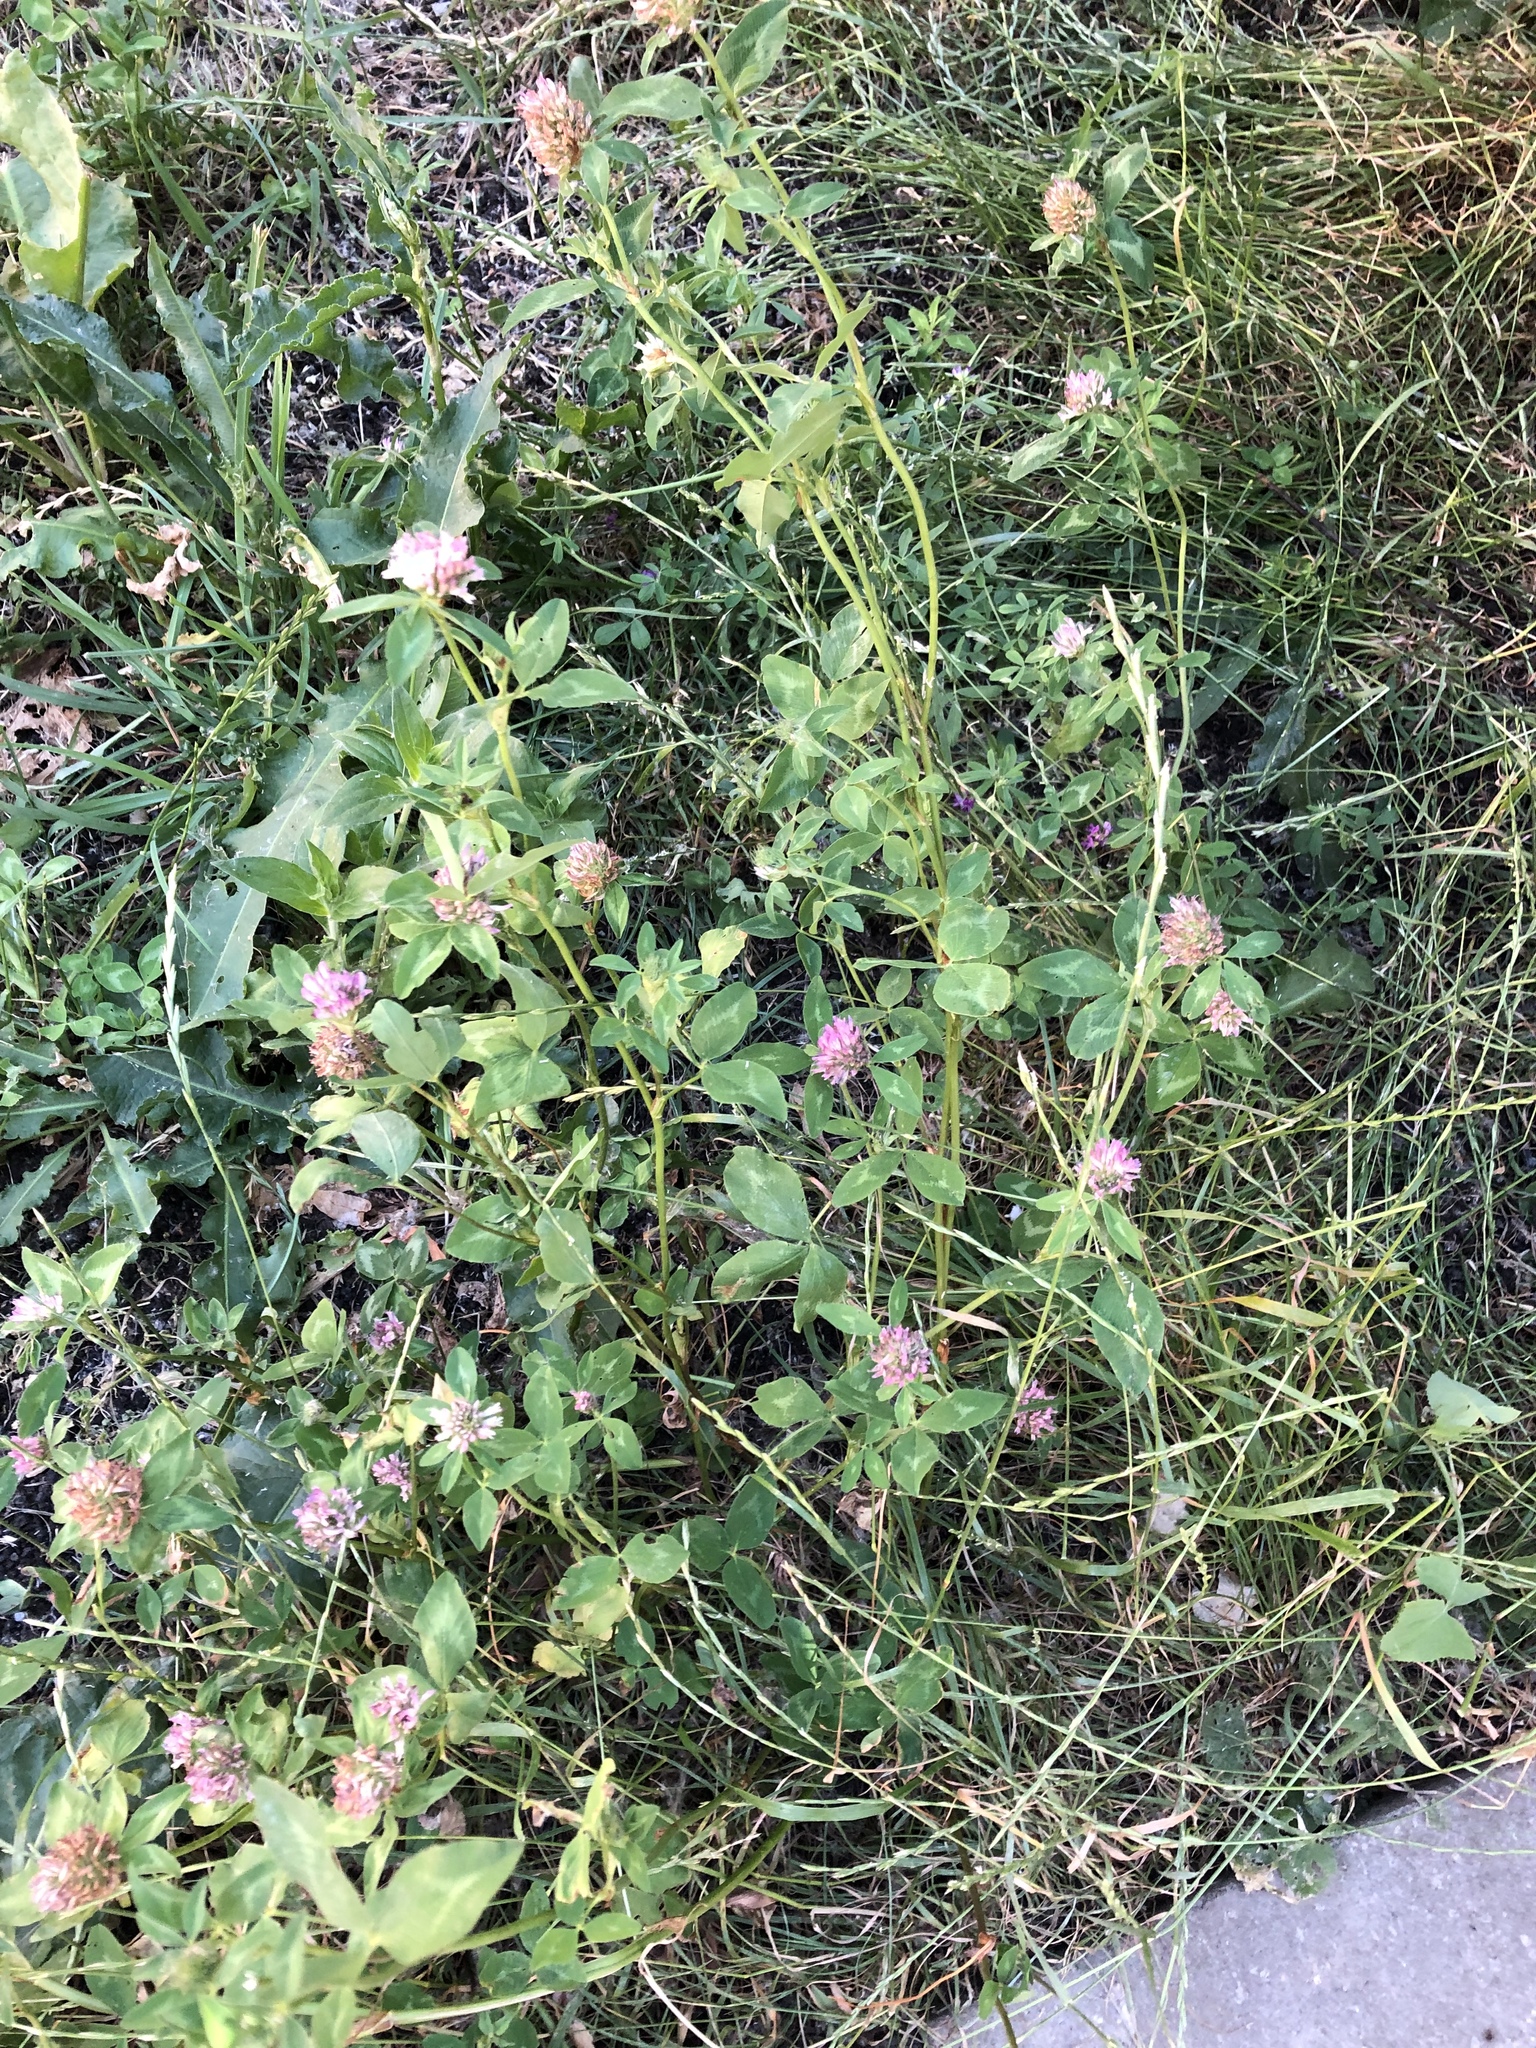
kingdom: Plantae
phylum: Tracheophyta
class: Magnoliopsida
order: Fabales
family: Fabaceae
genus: Trifolium
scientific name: Trifolium pratense
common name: Red clover
